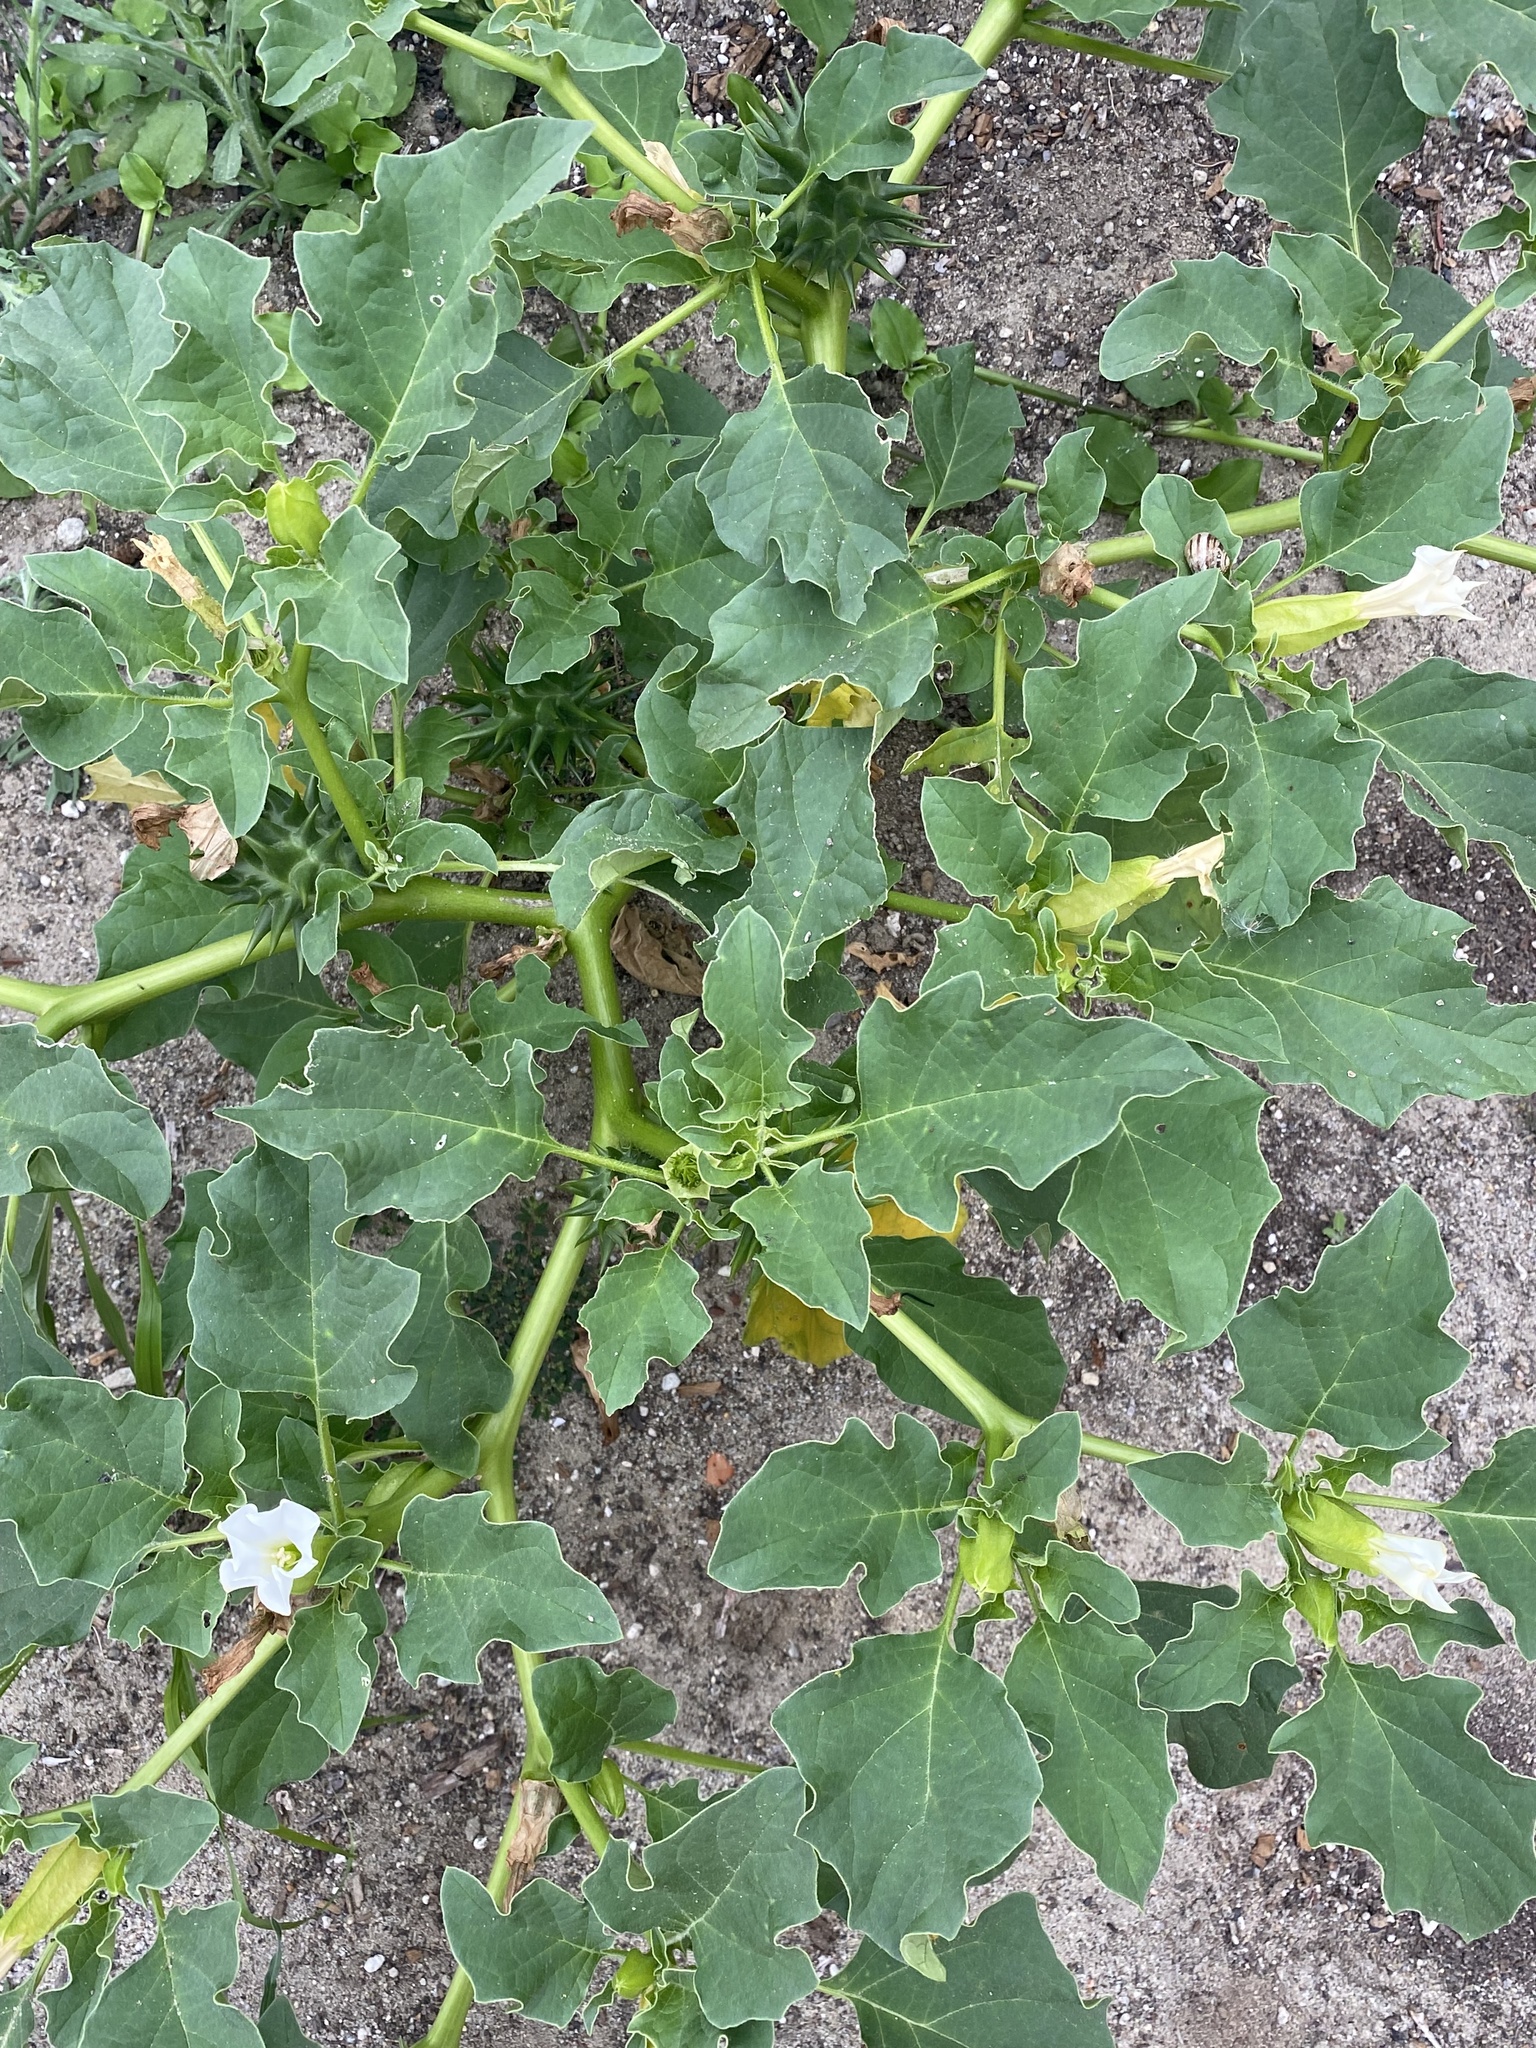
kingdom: Plantae
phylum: Tracheophyta
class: Magnoliopsida
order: Solanales
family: Solanaceae
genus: Datura
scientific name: Datura ferox
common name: Angel's-trumpets
